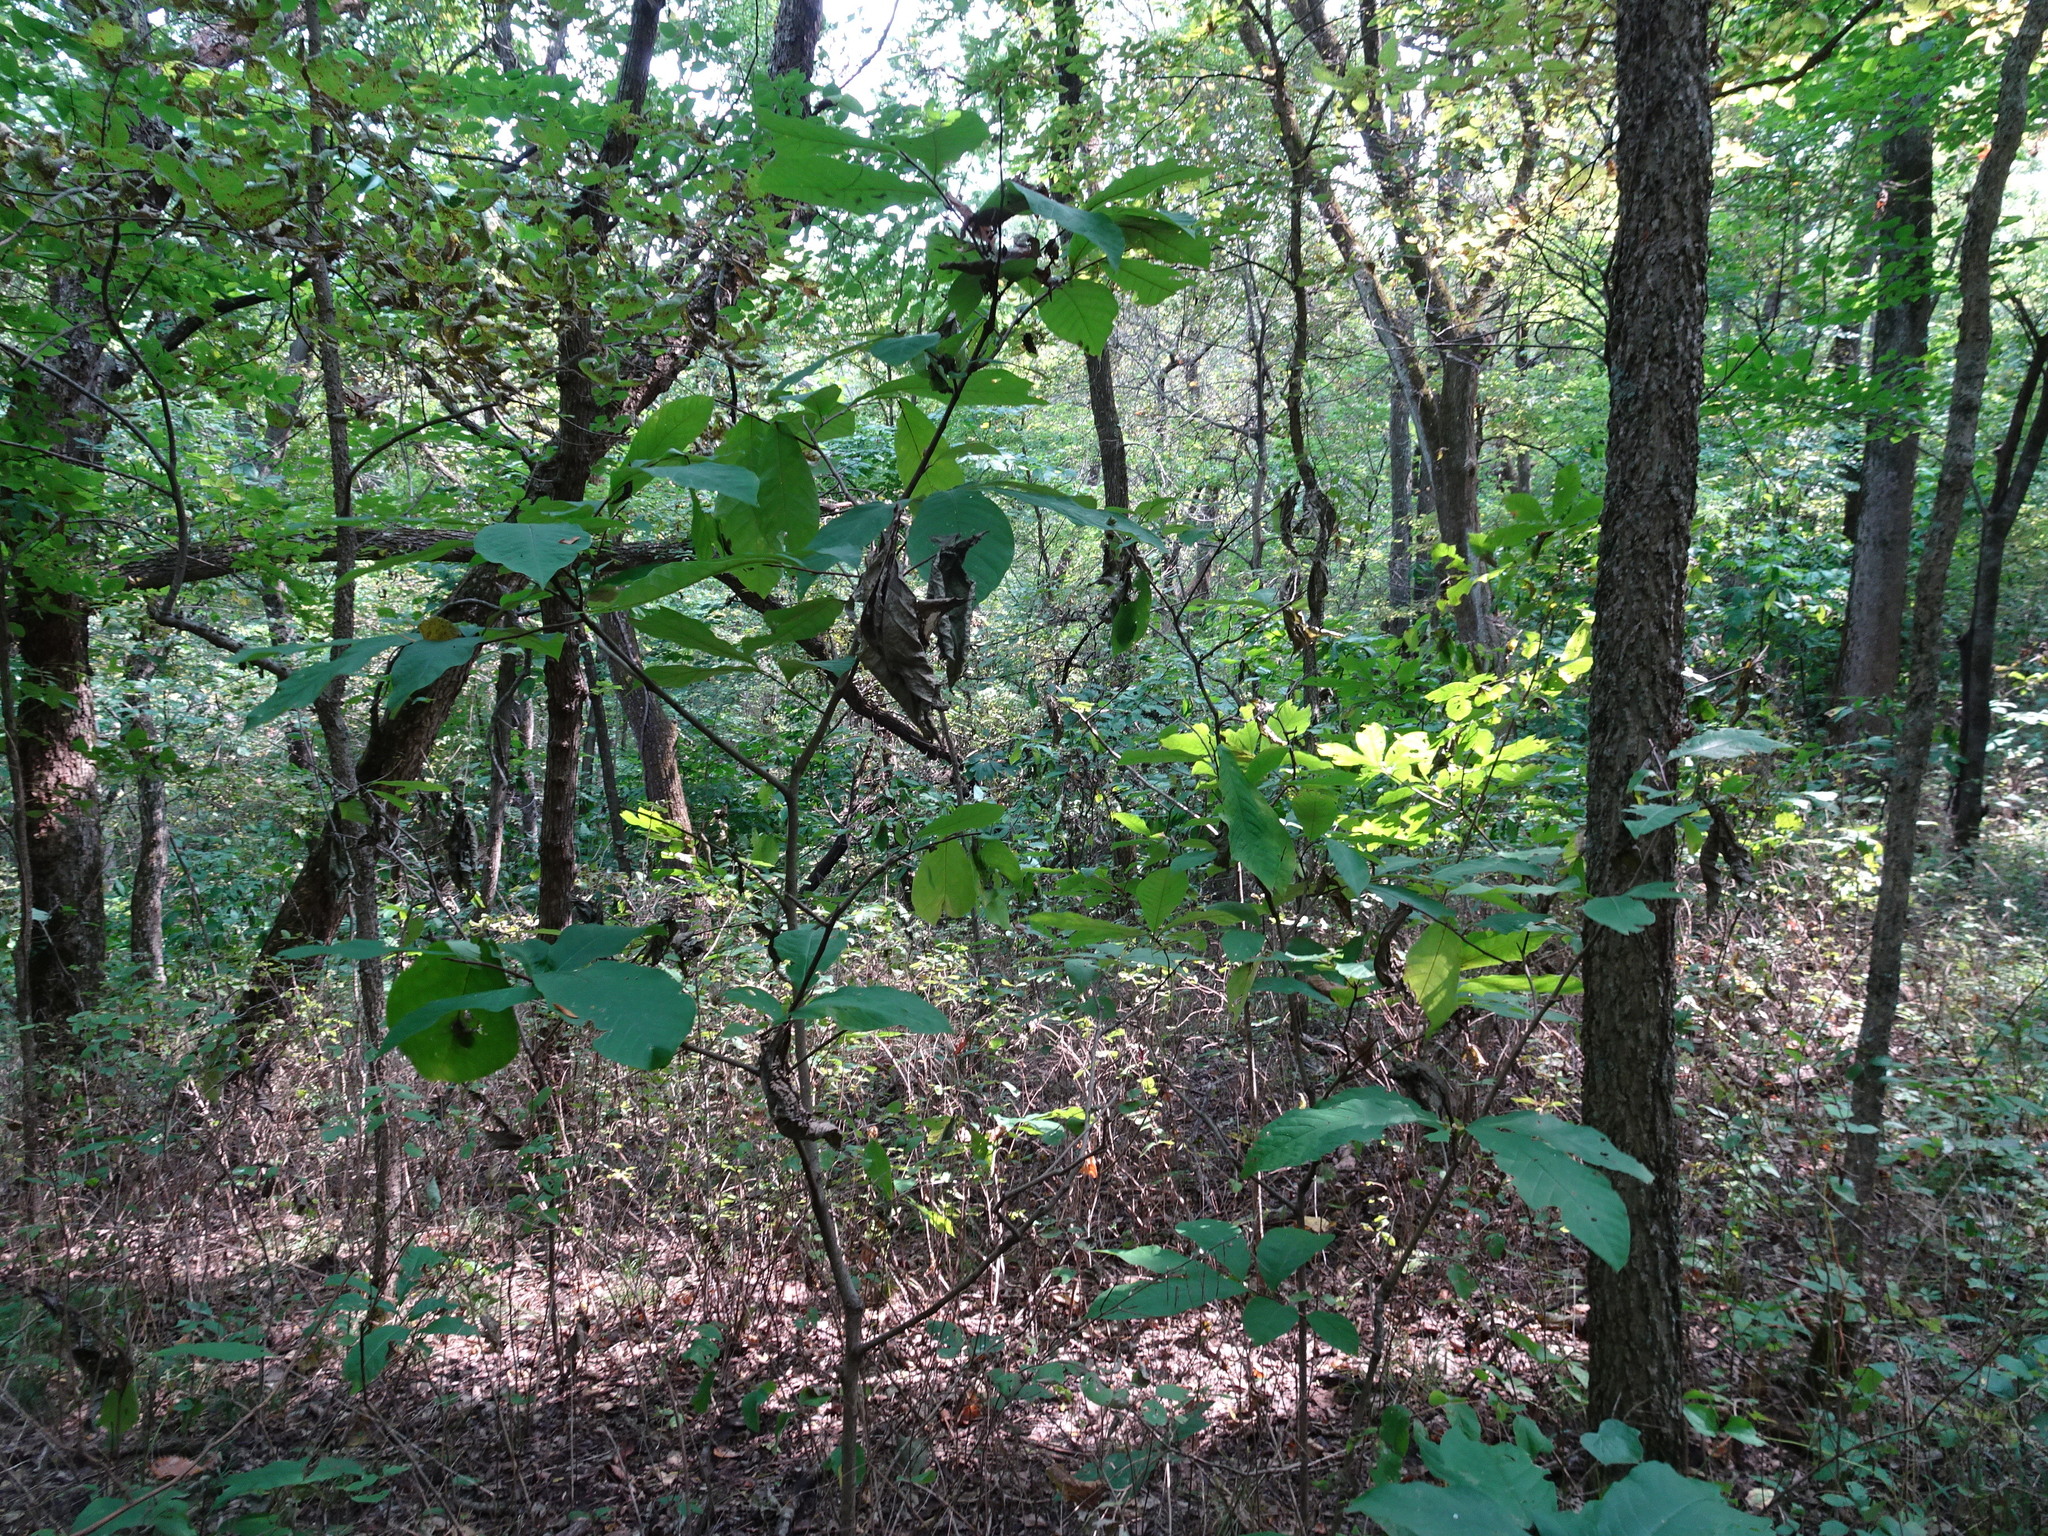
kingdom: Plantae
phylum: Tracheophyta
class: Magnoliopsida
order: Magnoliales
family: Annonaceae
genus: Asimina
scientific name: Asimina triloba
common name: Dog-banana
